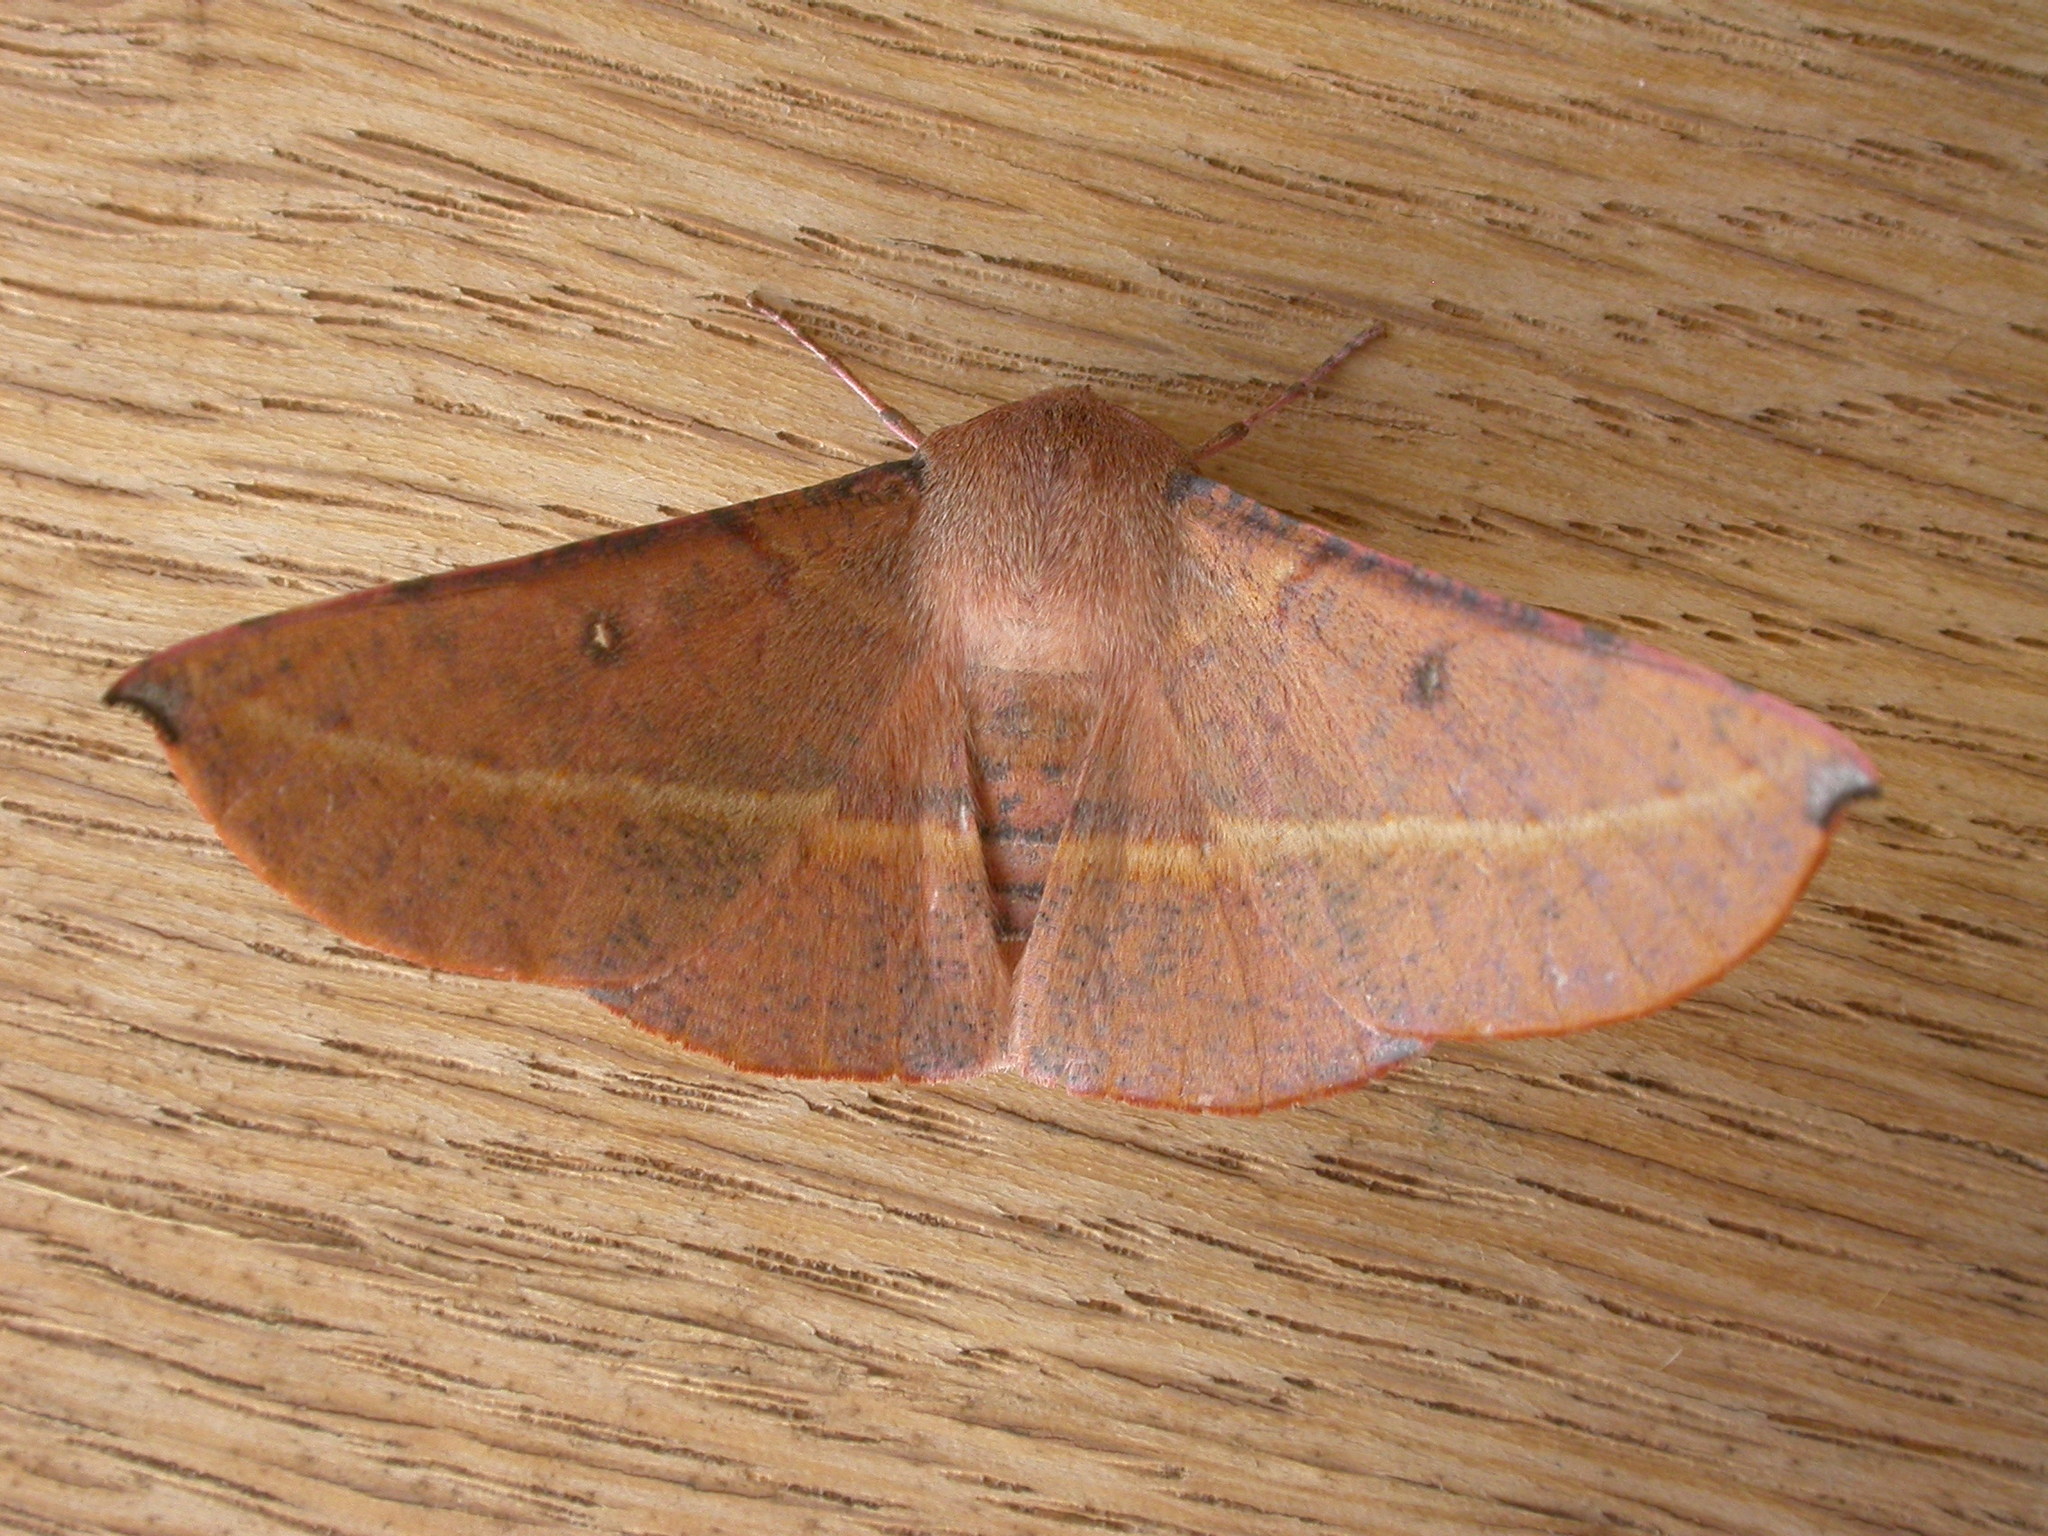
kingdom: Animalia
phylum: Arthropoda
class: Insecta
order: Lepidoptera
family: Geometridae
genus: Oenochroma
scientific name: Oenochroma vinaria
